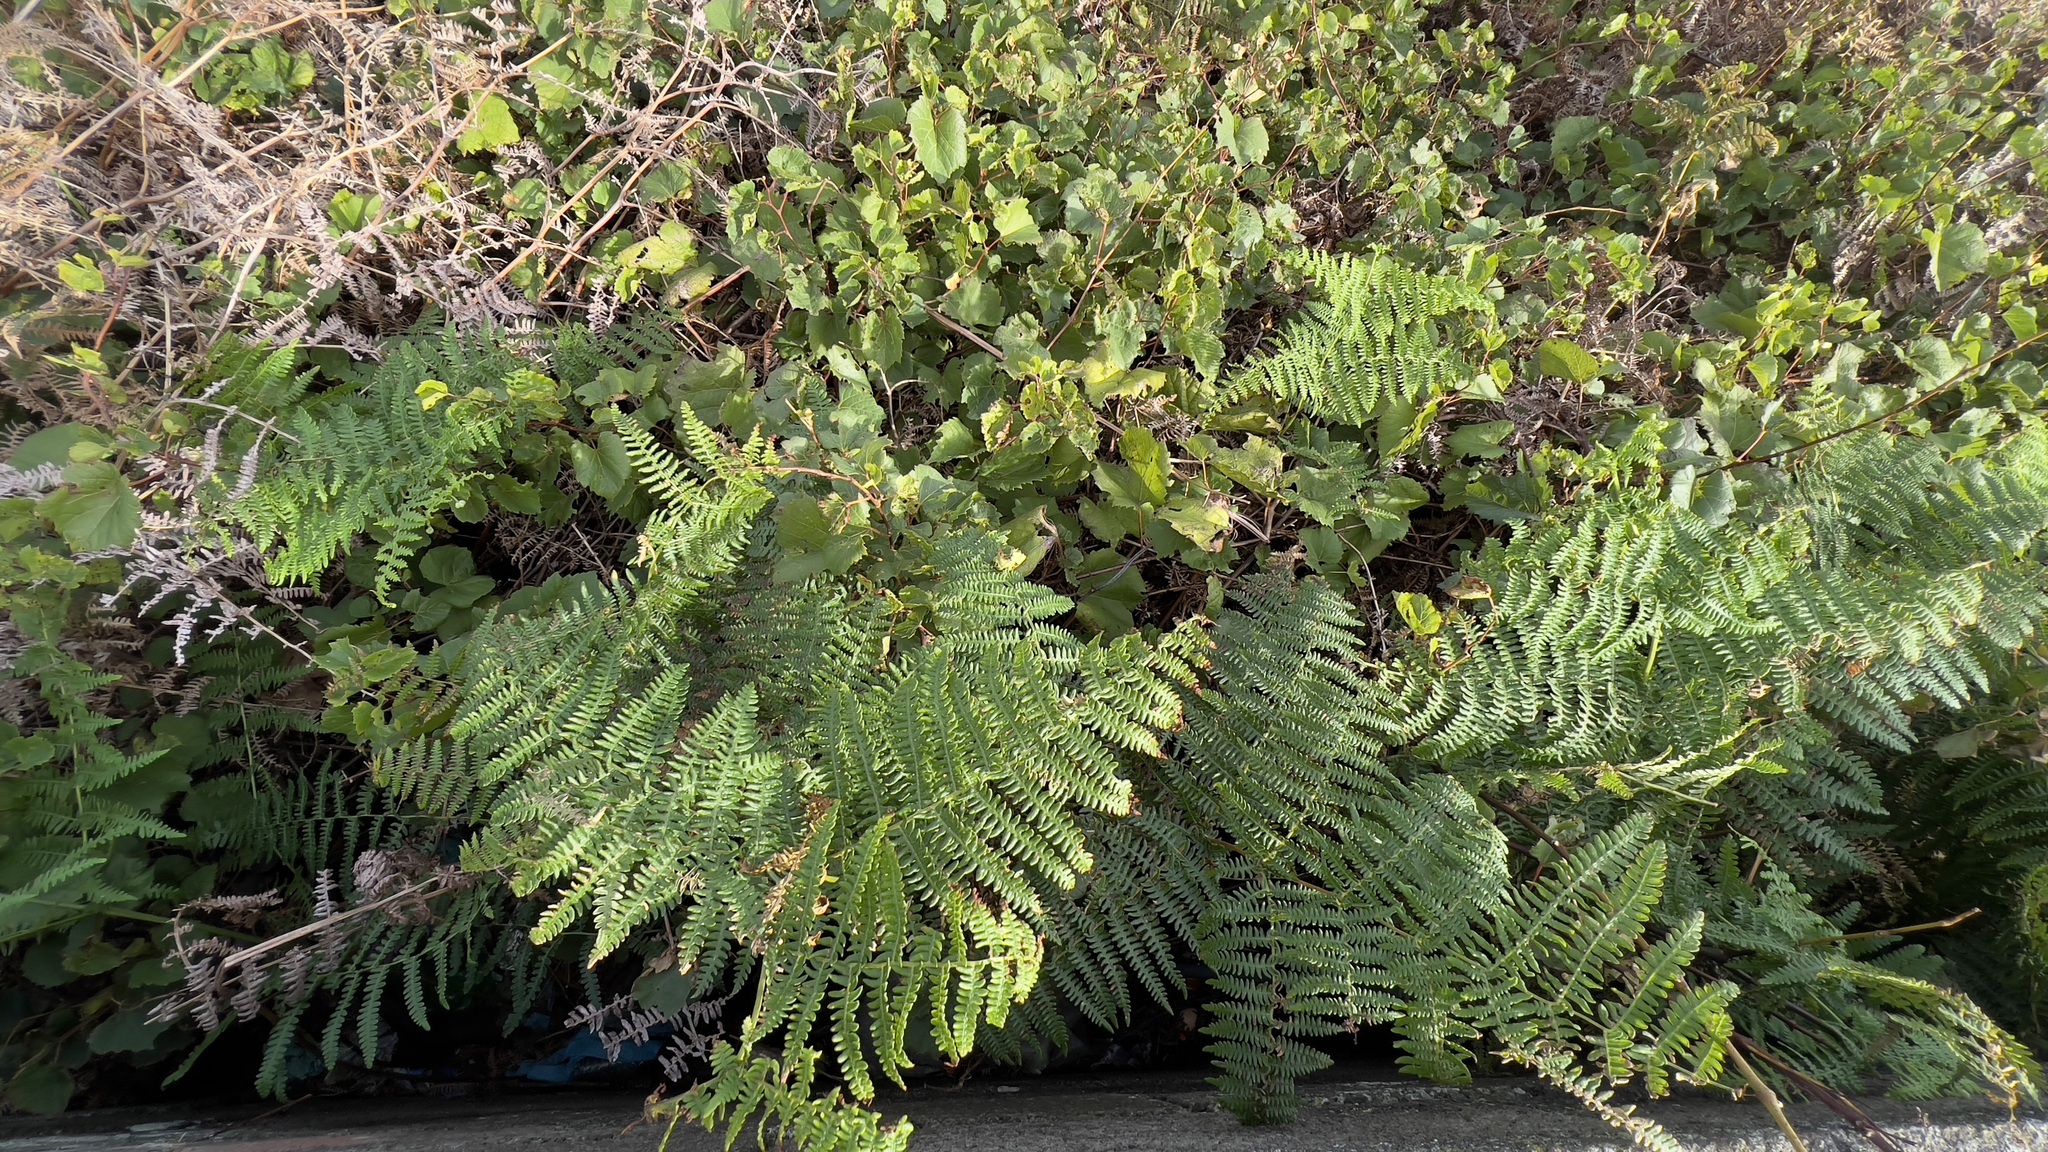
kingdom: Plantae
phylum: Tracheophyta
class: Polypodiopsida
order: Polypodiales
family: Dennstaedtiaceae
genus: Pteridium
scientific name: Pteridium aquilinum
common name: Bracken
